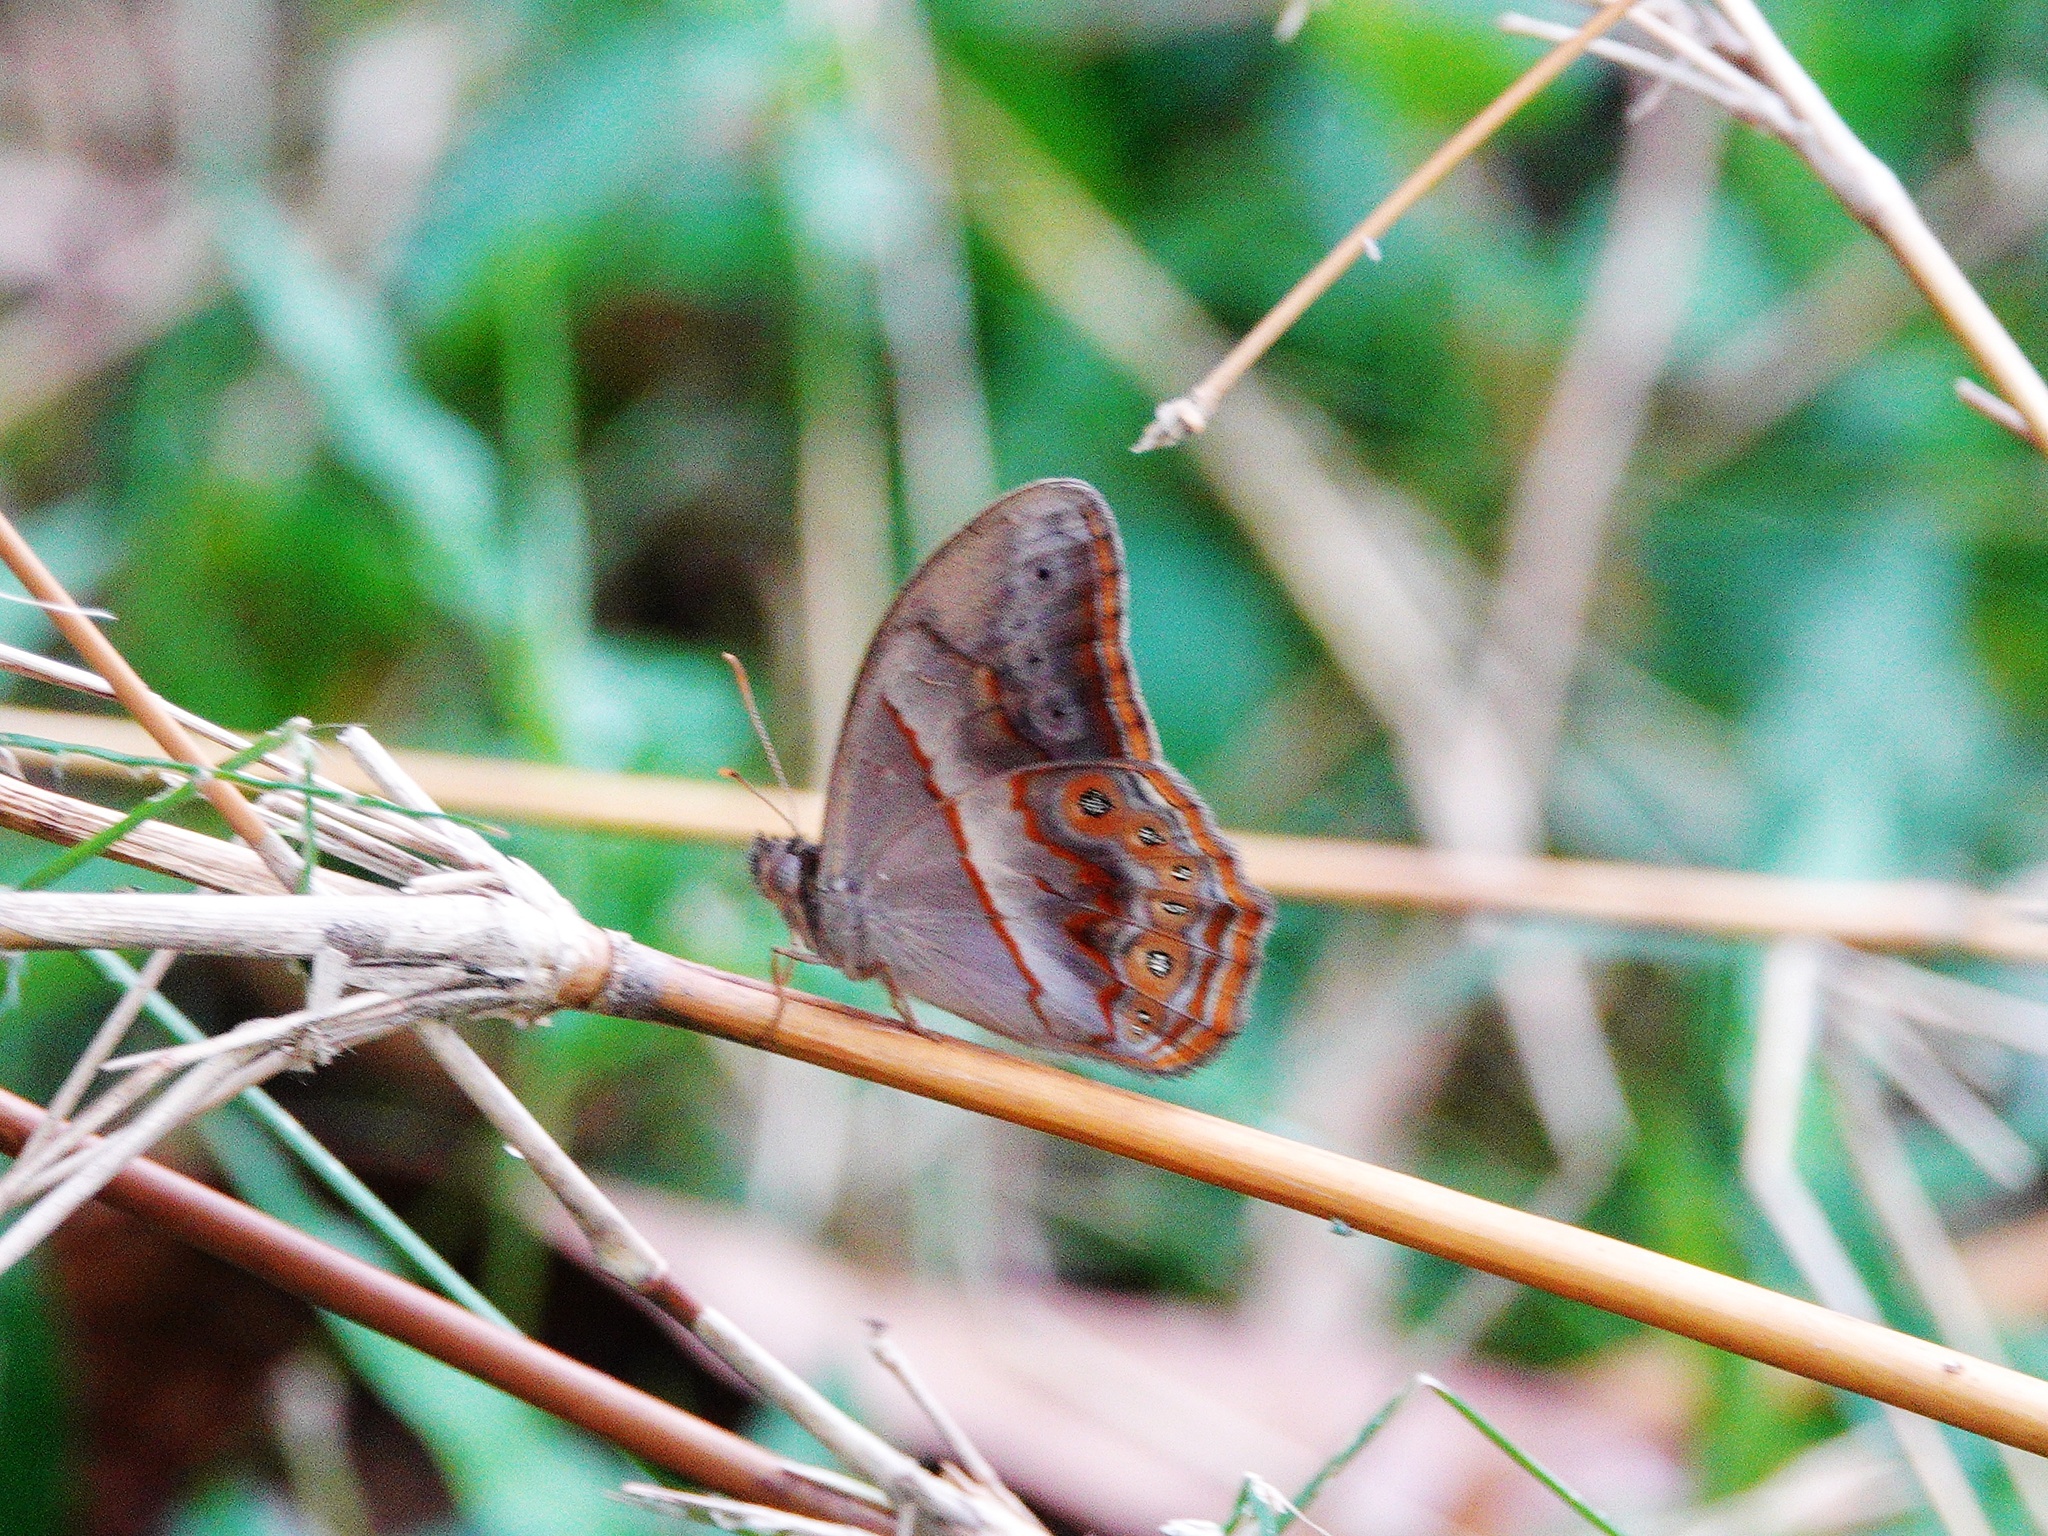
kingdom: Animalia
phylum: Arthropoda
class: Insecta
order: Lepidoptera
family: Nymphalidae
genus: Lethe
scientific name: Lethe minerva
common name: Banded red forester
